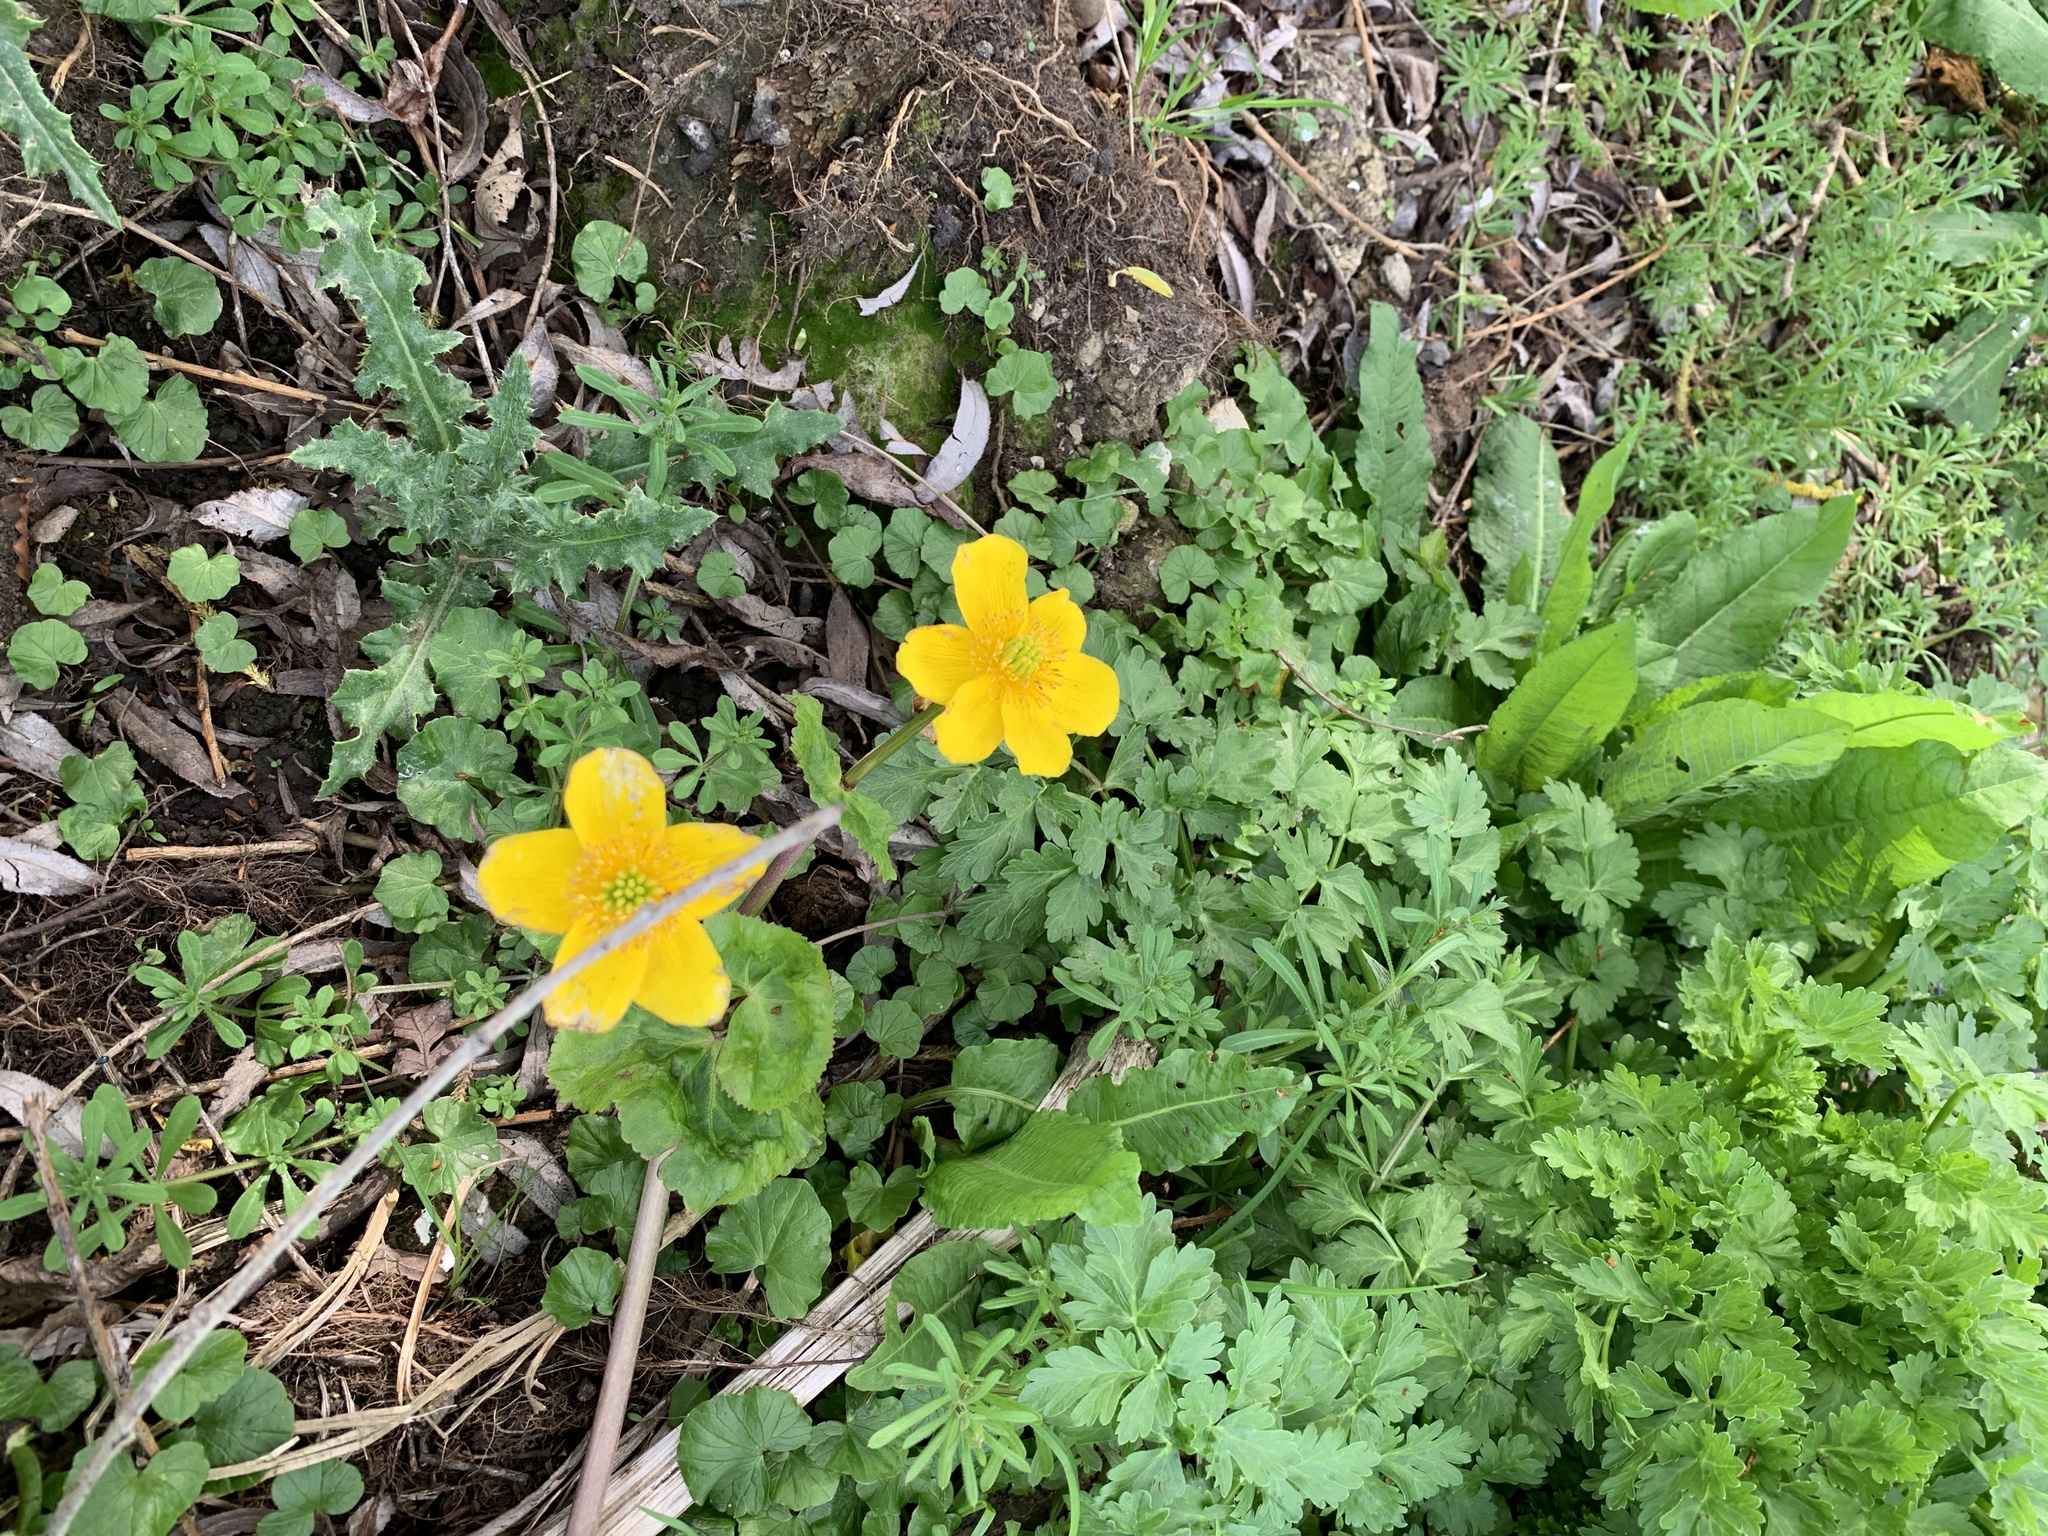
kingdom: Plantae
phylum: Tracheophyta
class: Magnoliopsida
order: Ranunculales
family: Ranunculaceae
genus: Caltha
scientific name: Caltha palustris
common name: Marsh marigold
